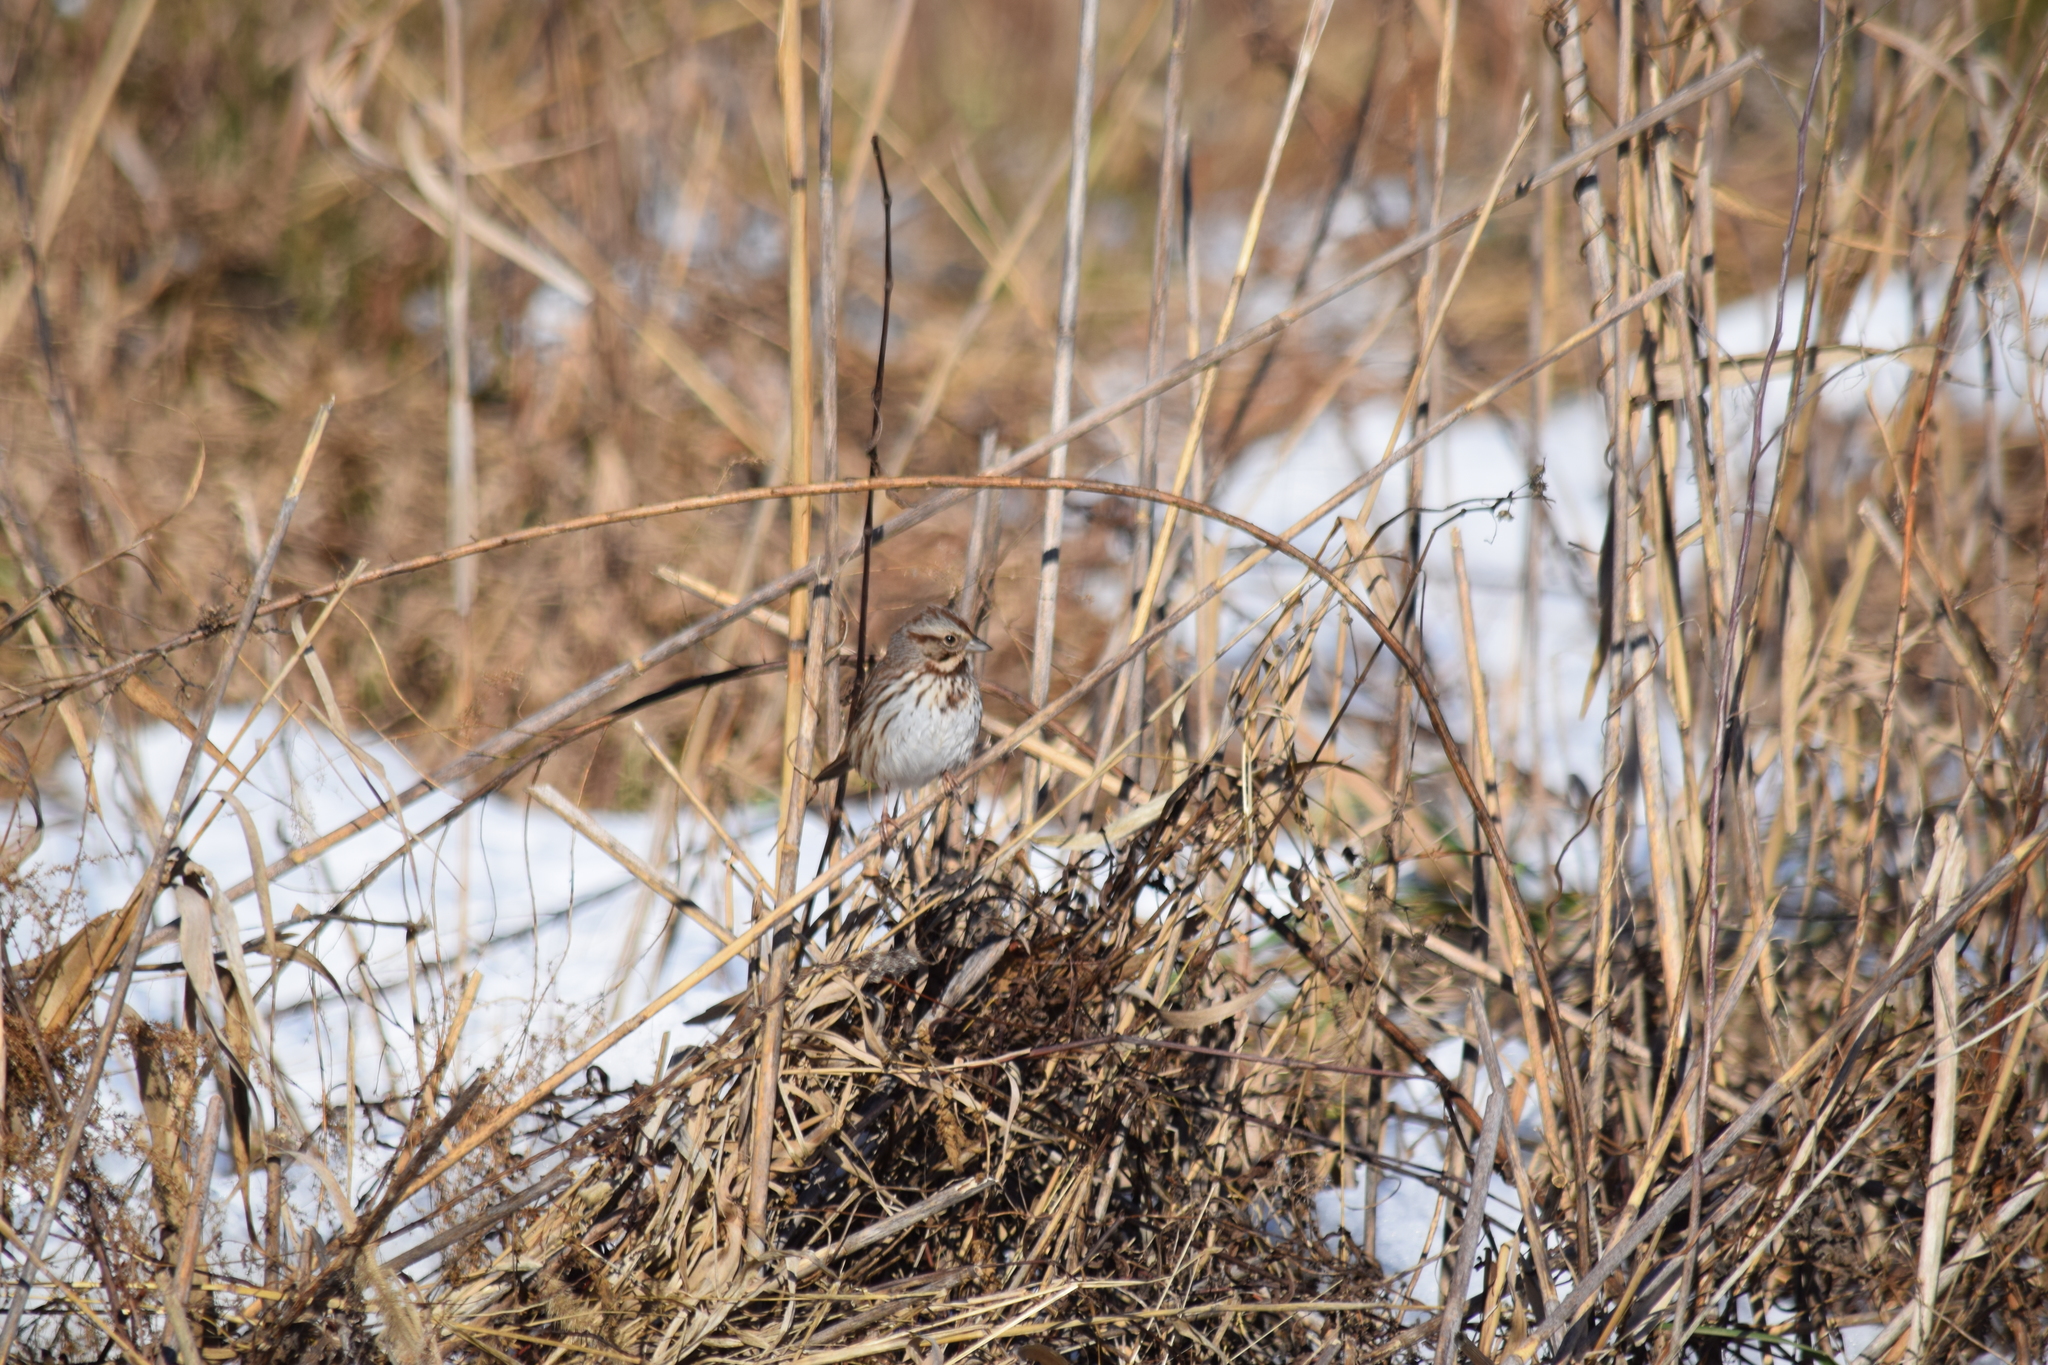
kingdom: Animalia
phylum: Chordata
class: Aves
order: Passeriformes
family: Passerellidae
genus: Melospiza
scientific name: Melospiza melodia
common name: Song sparrow
